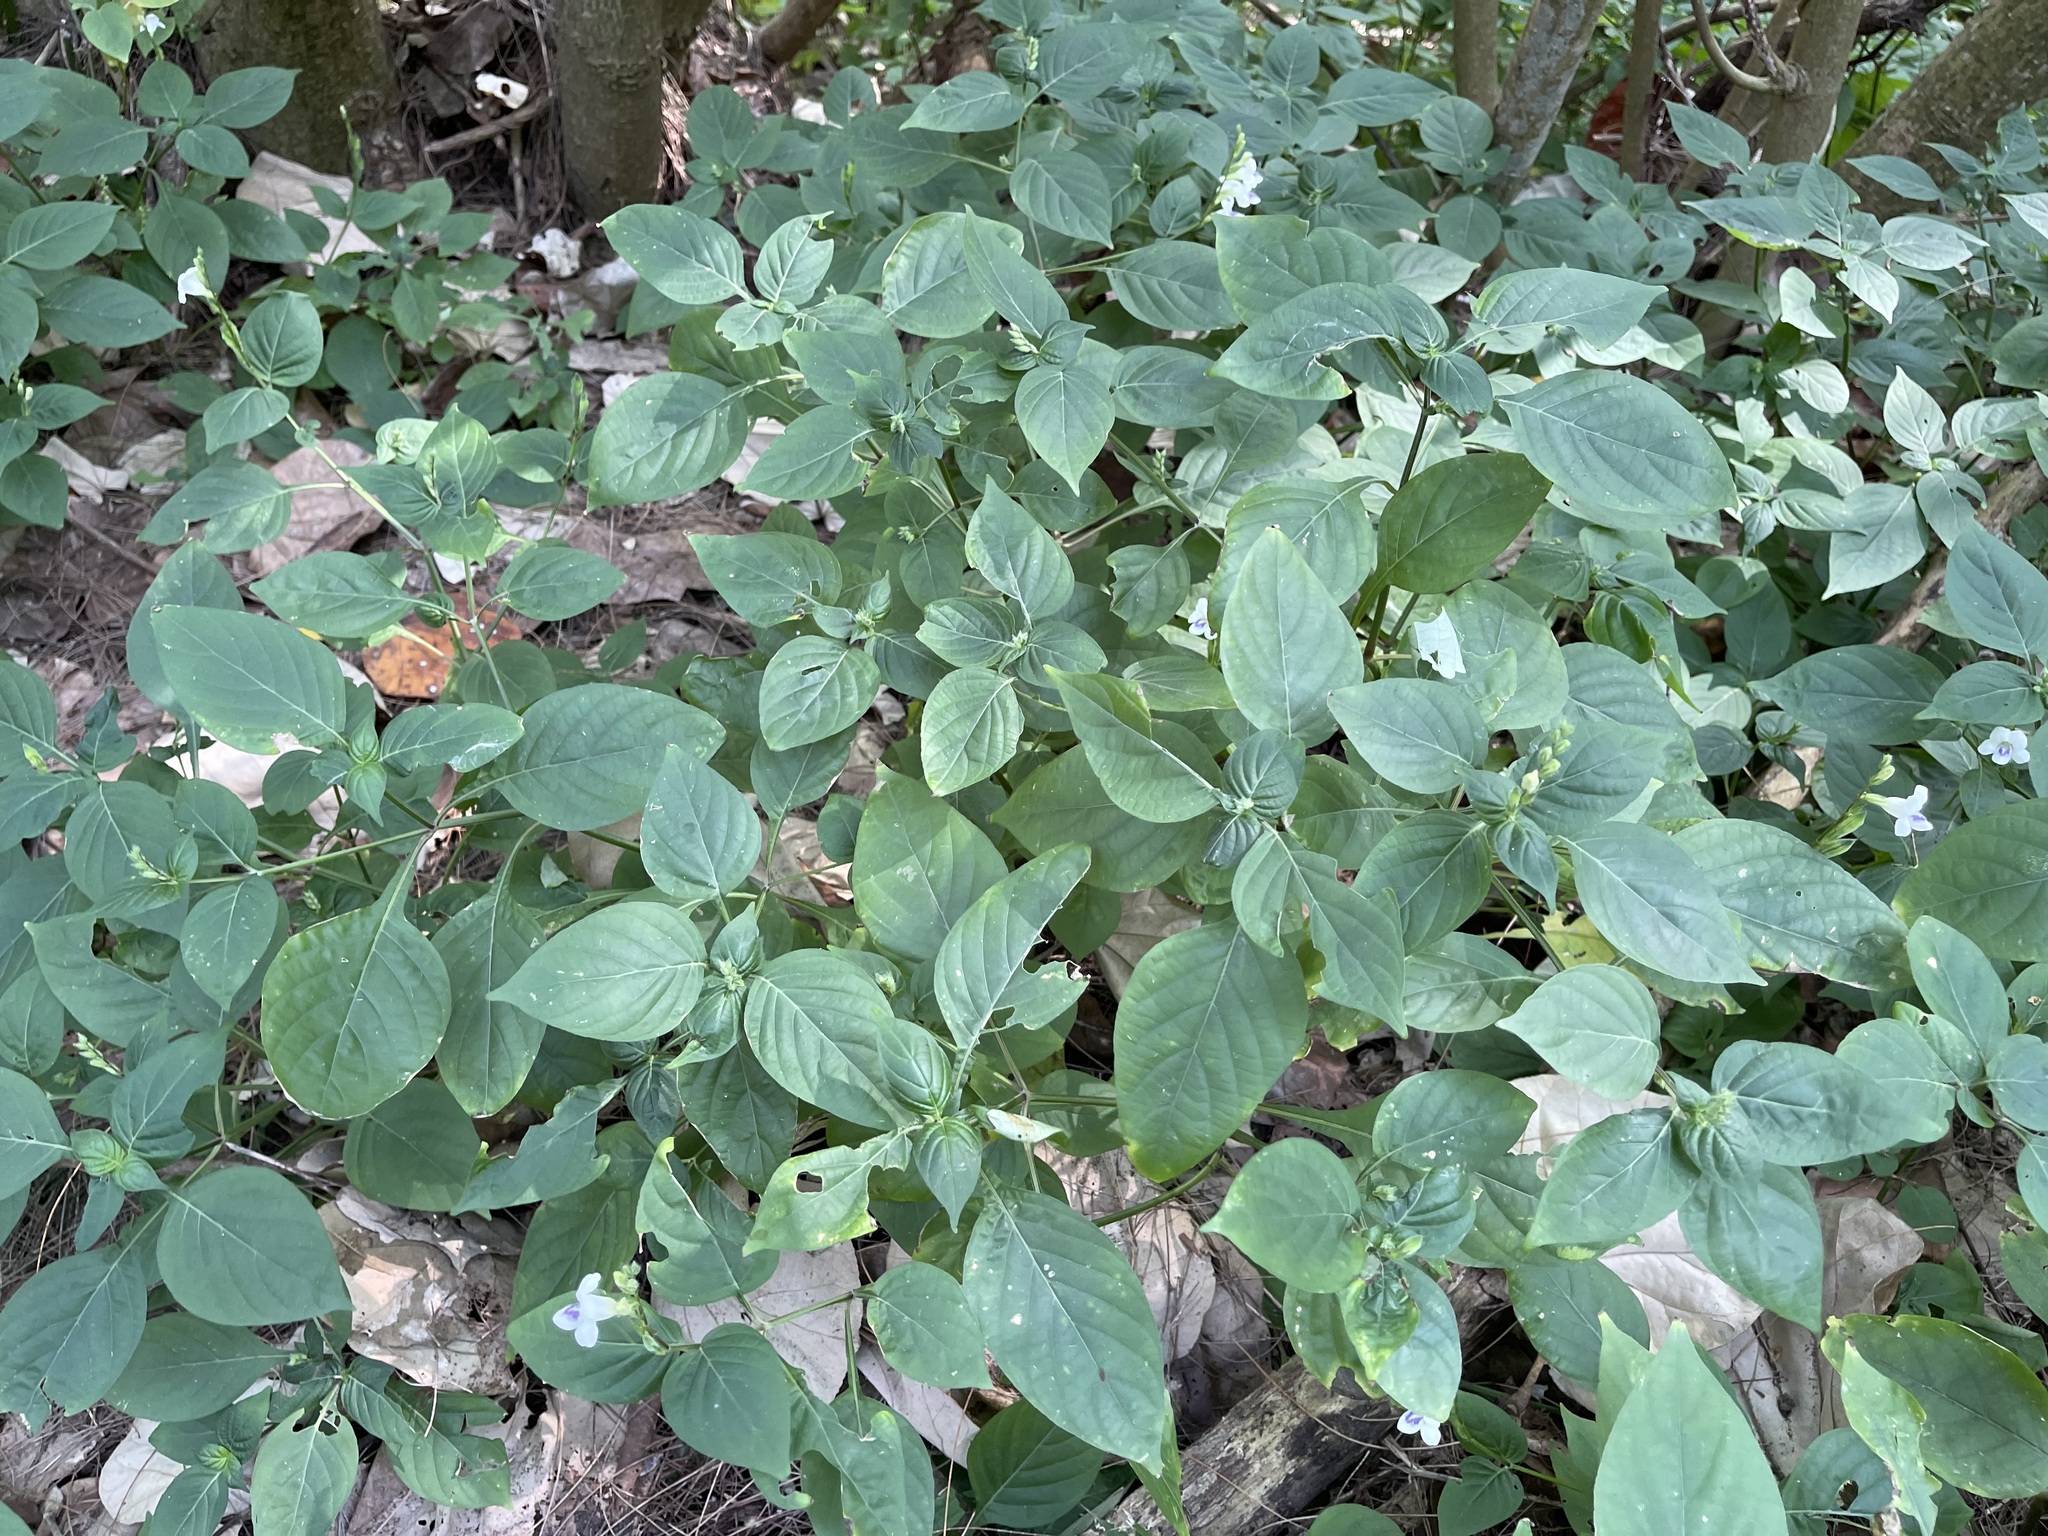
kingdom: Plantae
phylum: Tracheophyta
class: Magnoliopsida
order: Lamiales
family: Acanthaceae
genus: Asystasia
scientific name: Asystasia intrusa
